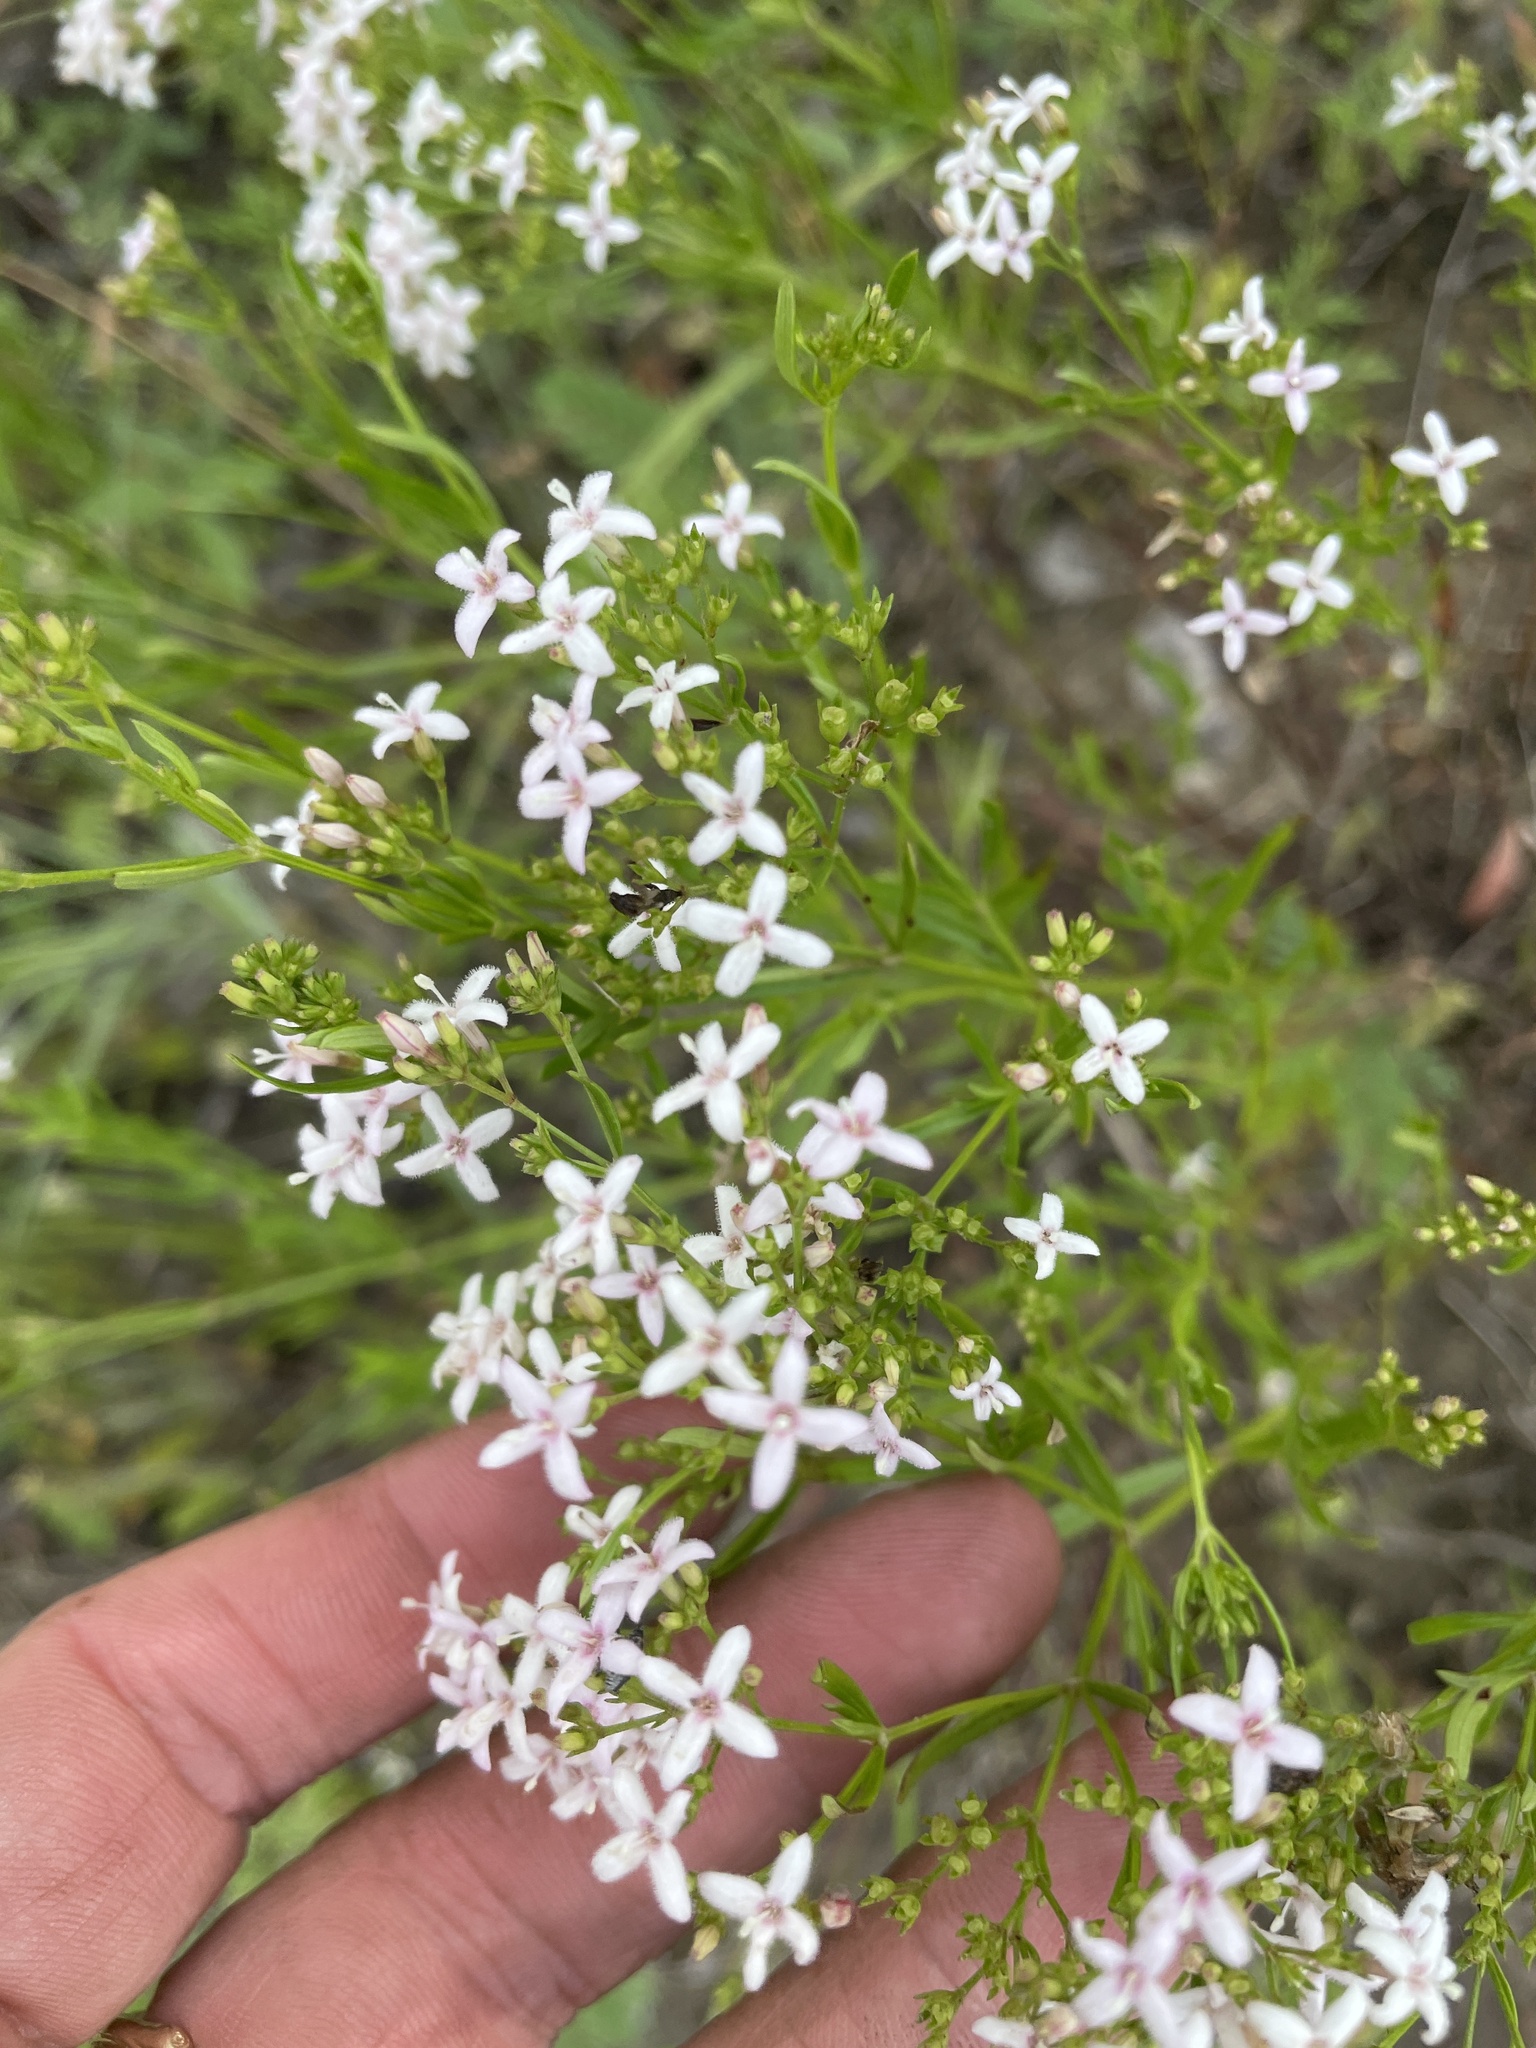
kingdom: Plantae
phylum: Tracheophyta
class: Magnoliopsida
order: Gentianales
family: Rubiaceae
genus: Stenaria
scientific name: Stenaria nigricans
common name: Diamondflowers
